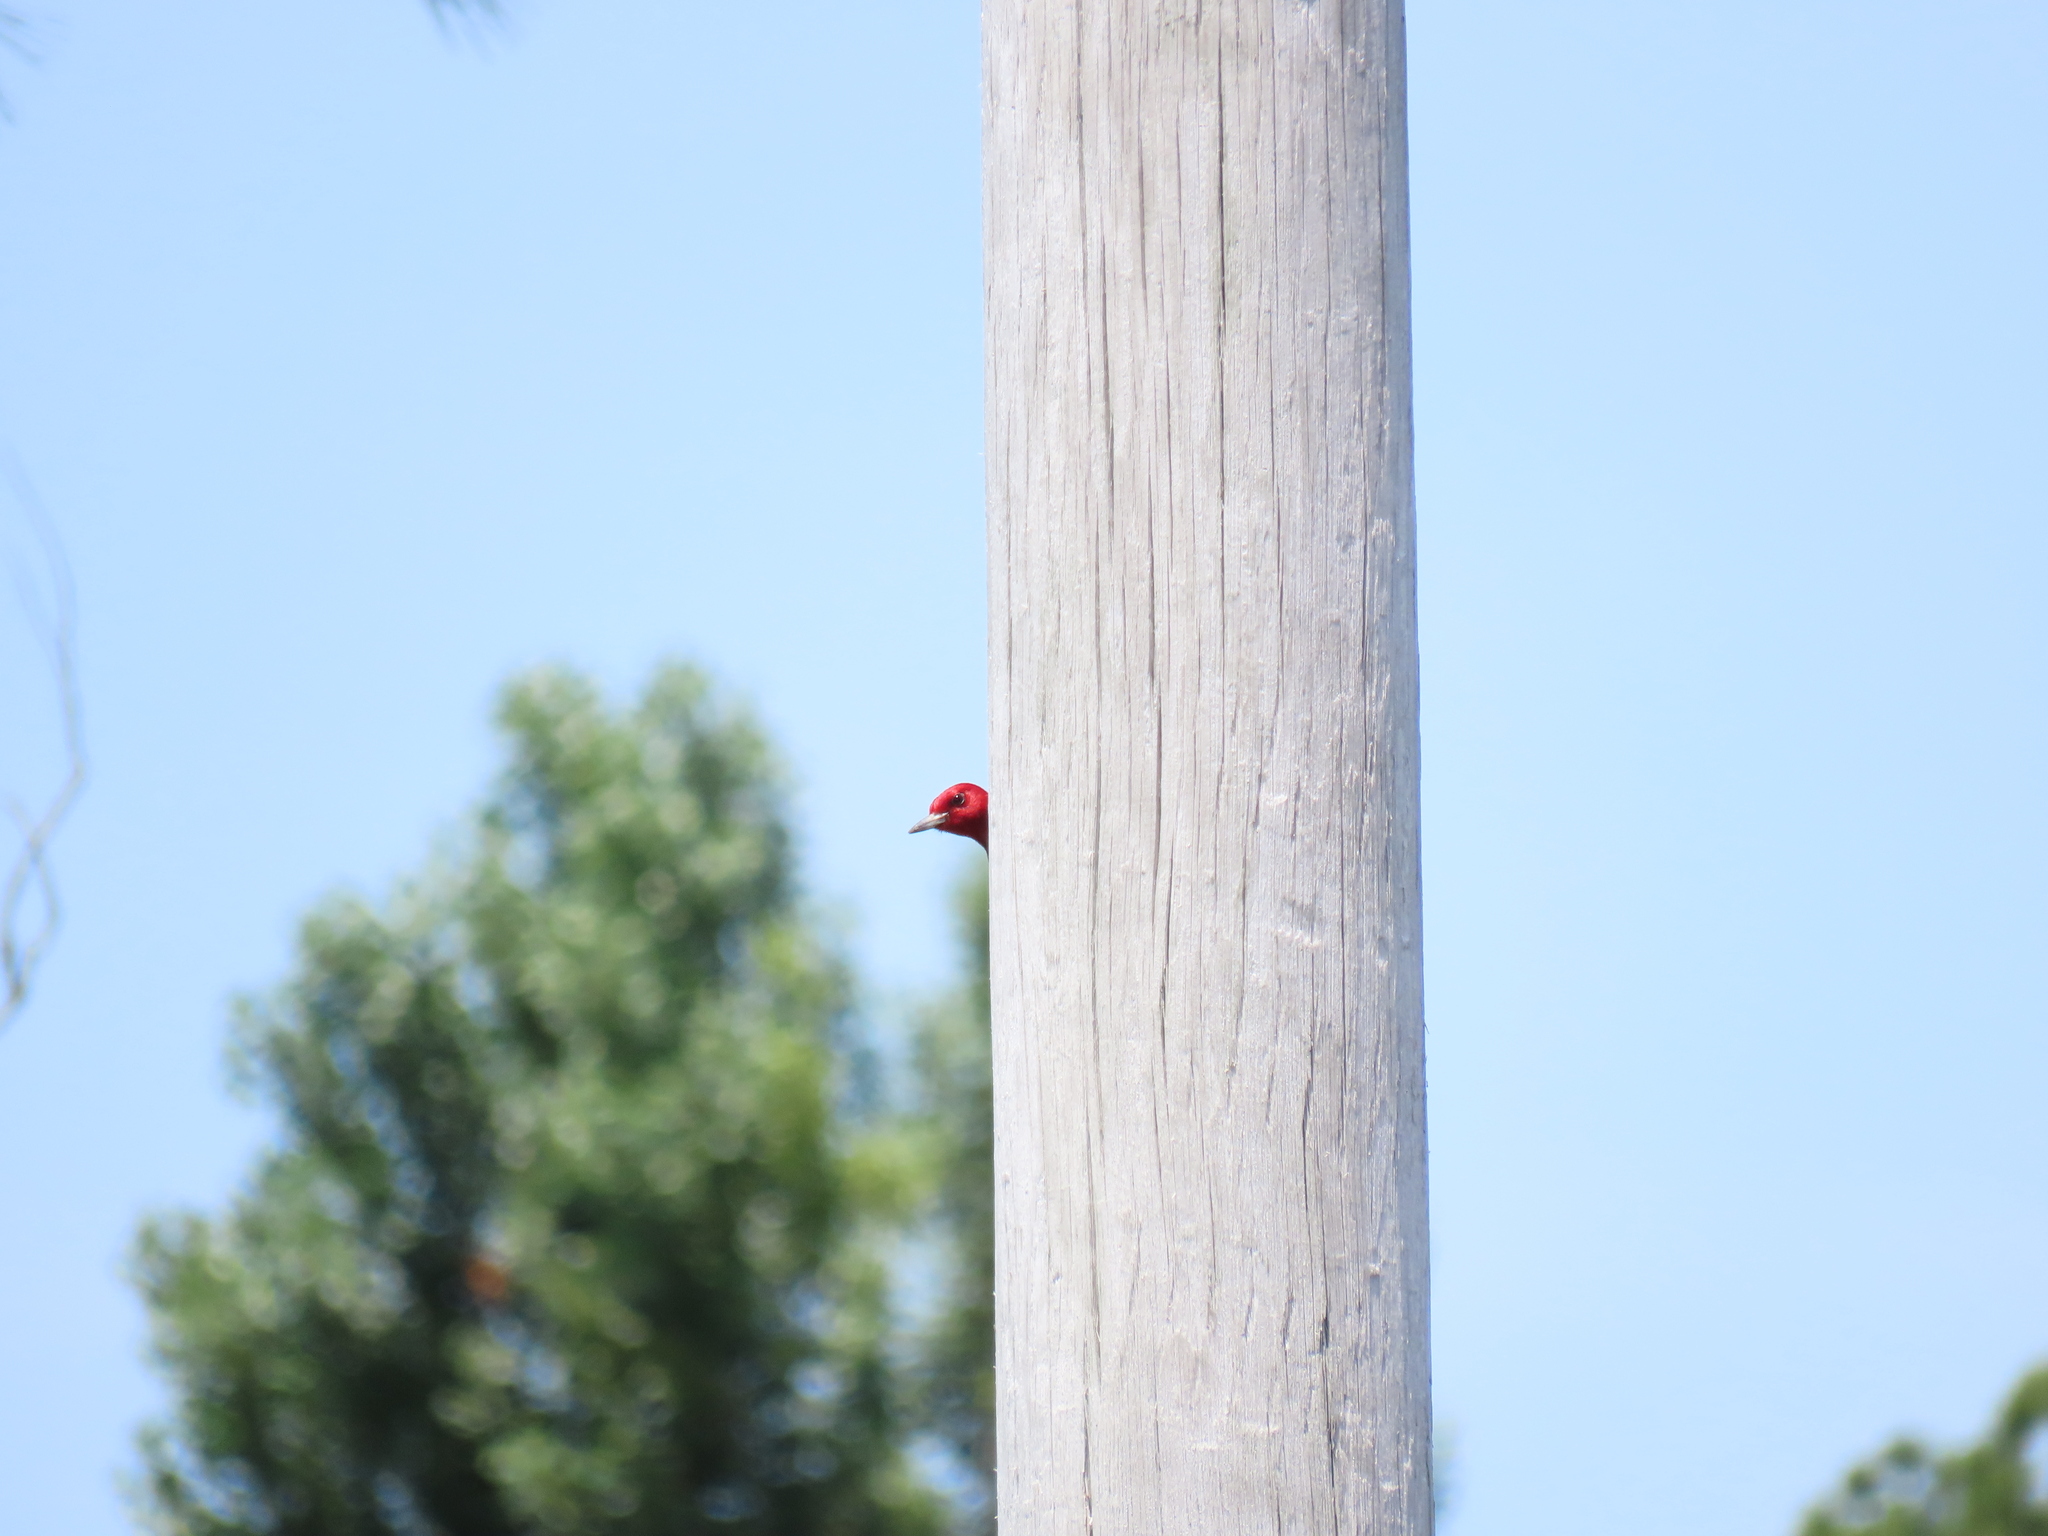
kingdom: Animalia
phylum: Chordata
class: Aves
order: Piciformes
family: Picidae
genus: Melanerpes
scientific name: Melanerpes erythrocephalus
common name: Red-headed woodpecker
